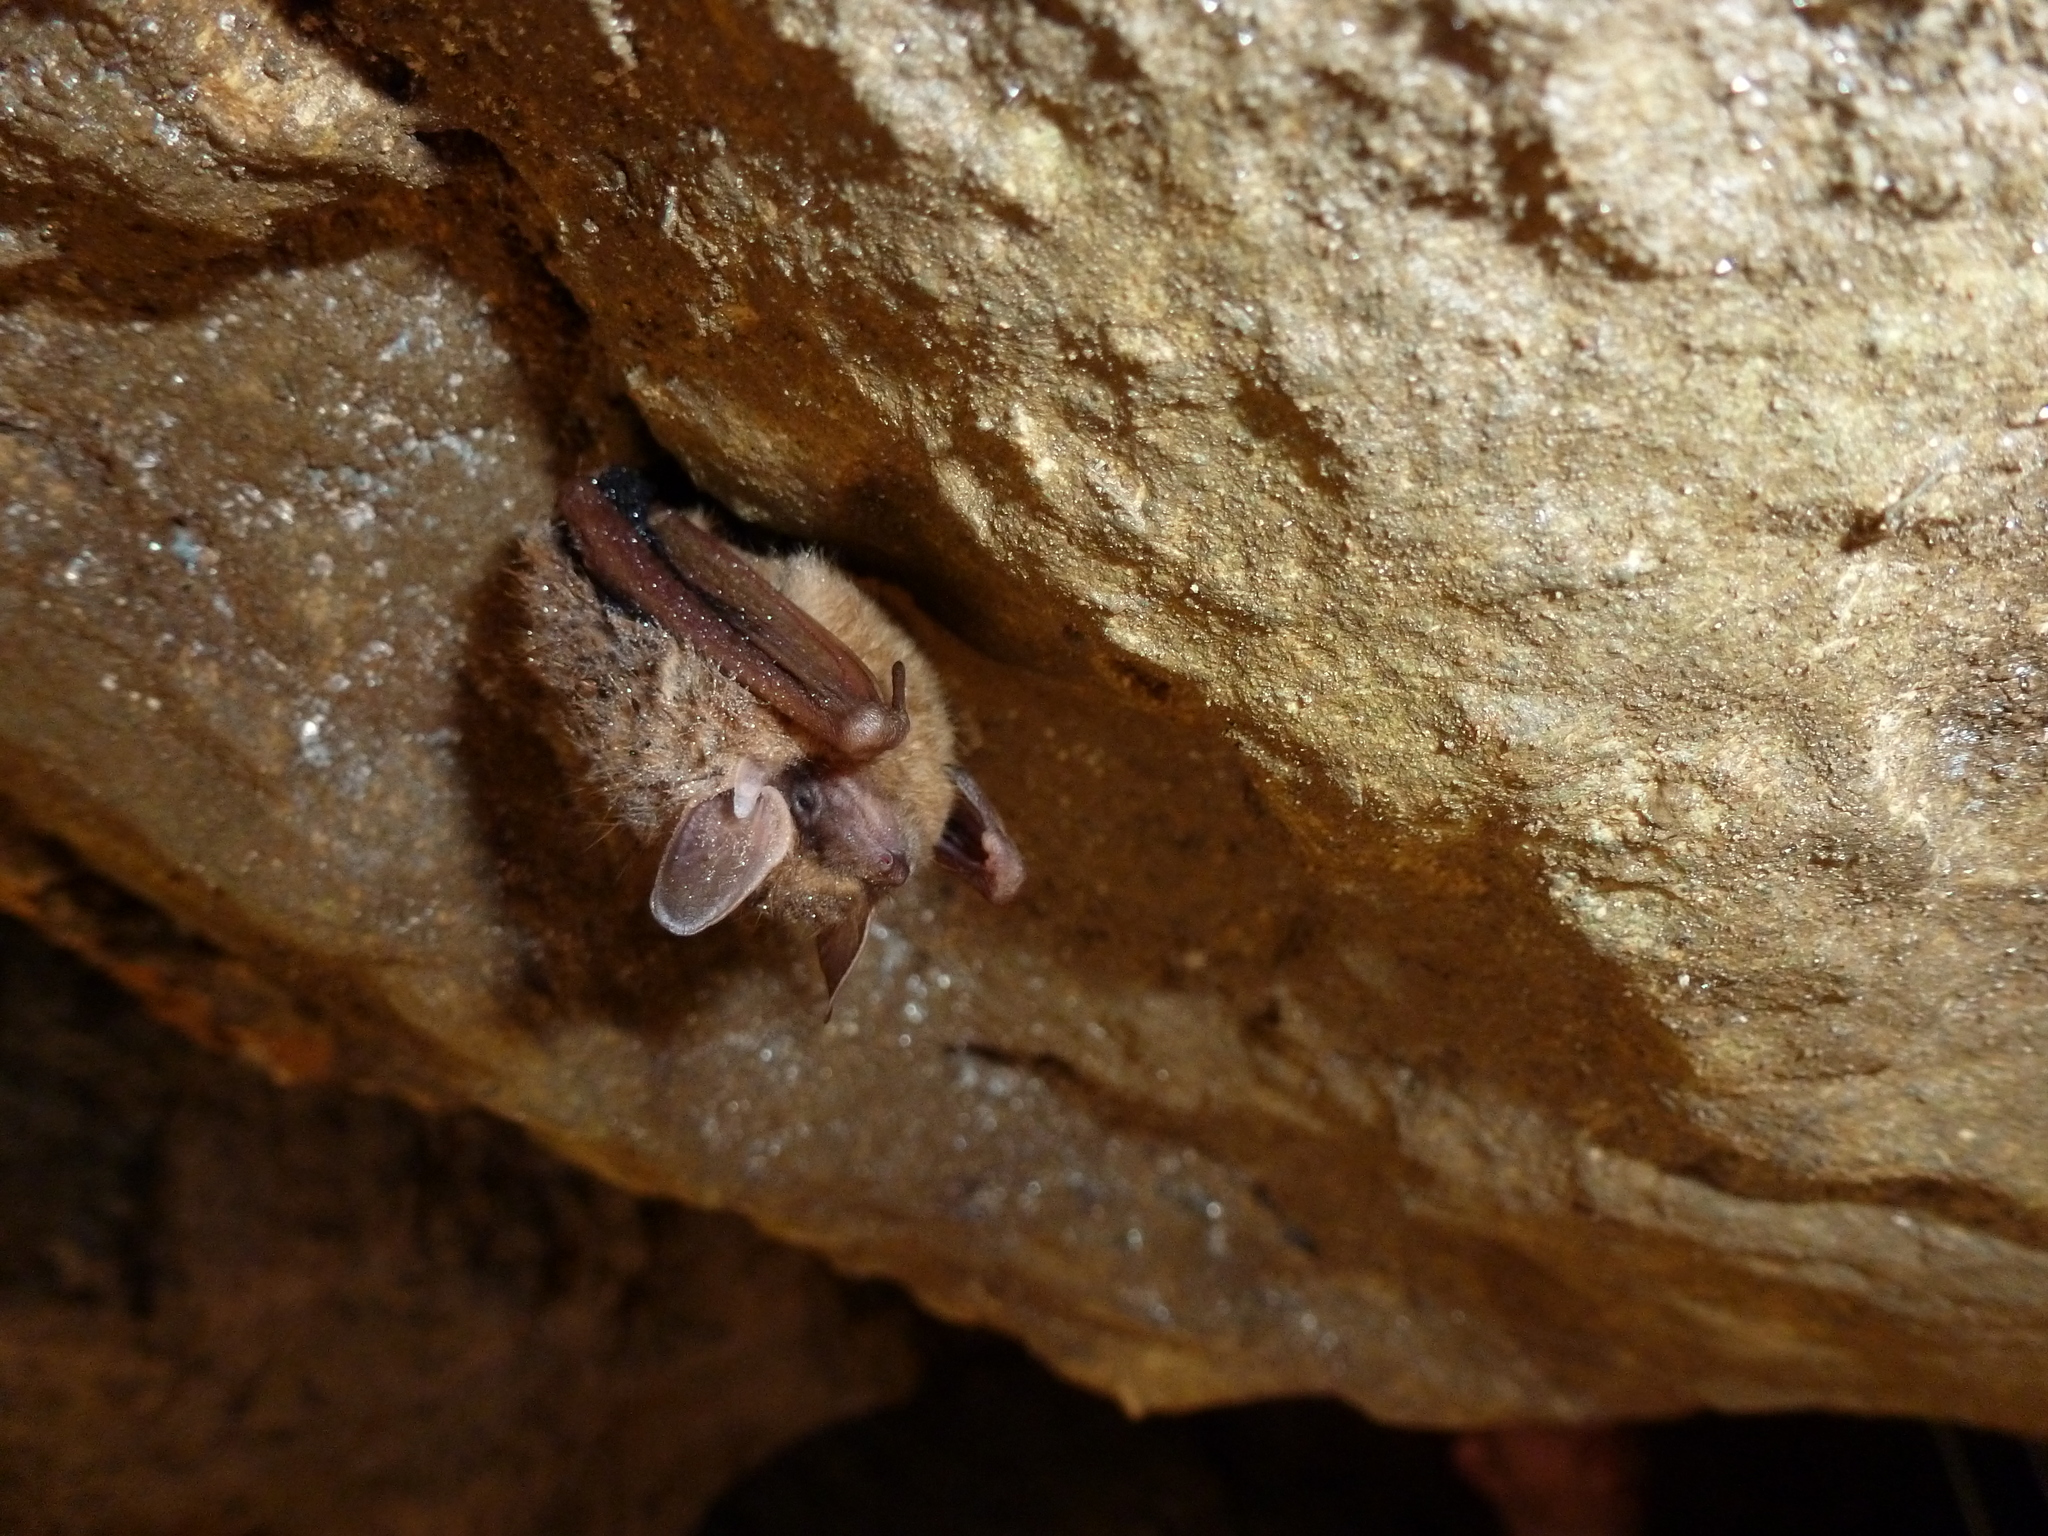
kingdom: Animalia
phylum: Chordata
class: Mammalia
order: Chiroptera
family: Vespertilionidae
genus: Perimyotis
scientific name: Perimyotis subflavus
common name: Eastern pipistrelle
